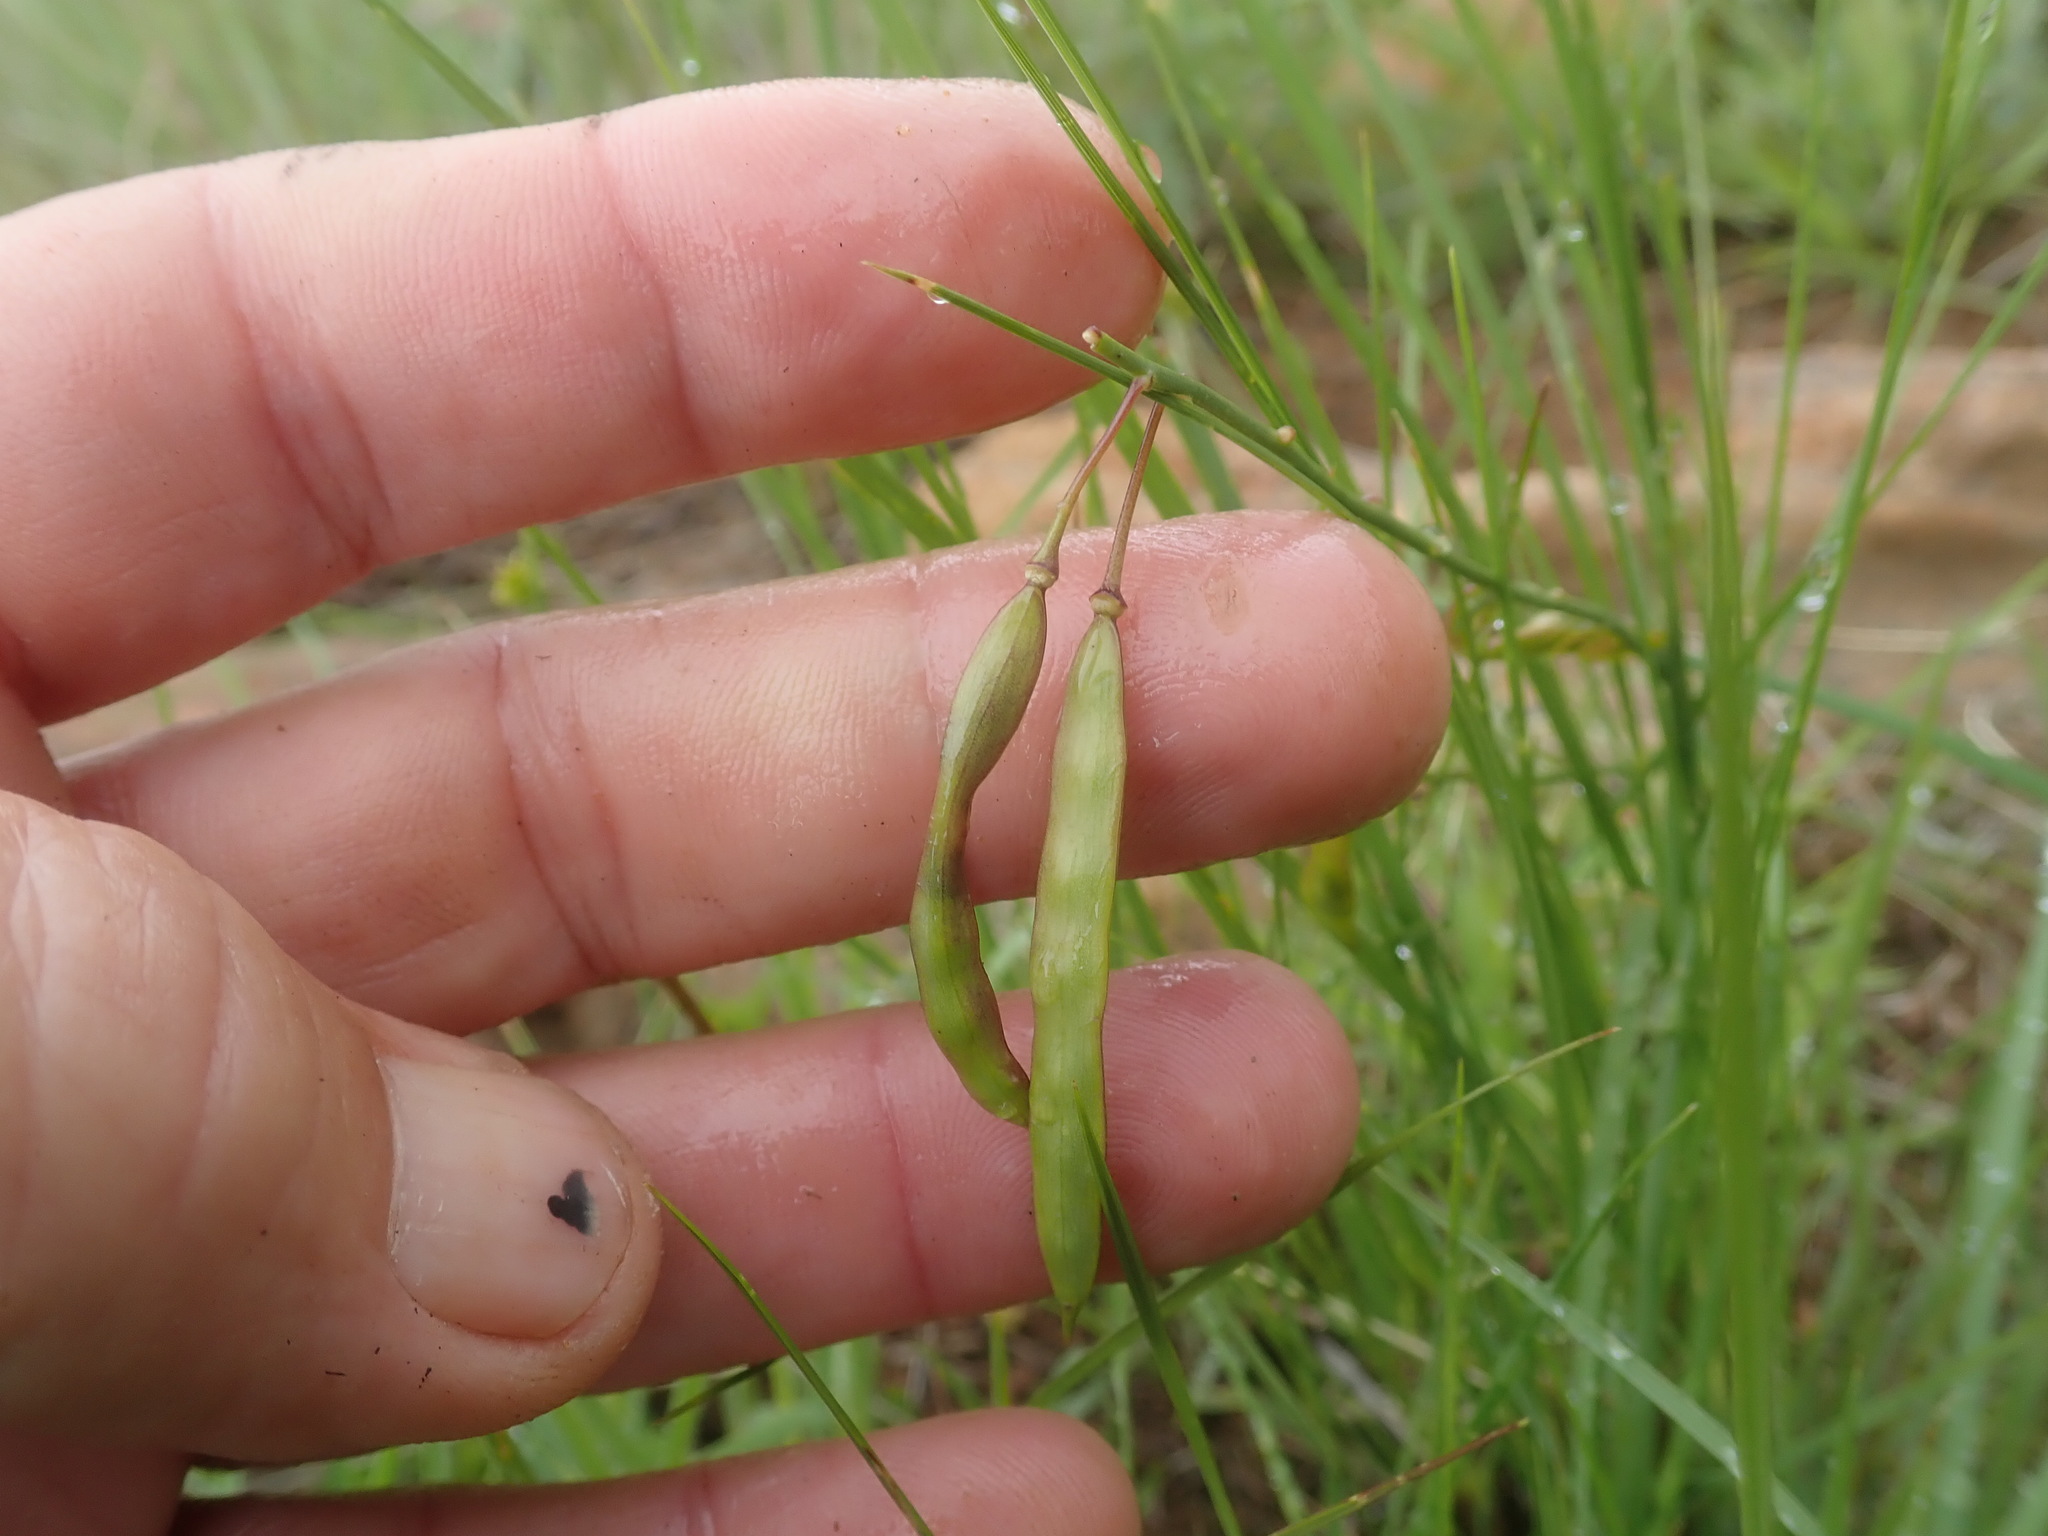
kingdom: Plantae
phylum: Tracheophyta
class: Magnoliopsida
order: Brassicales
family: Brassicaceae
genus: Heliophila
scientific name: Heliophila rigidiuscula
